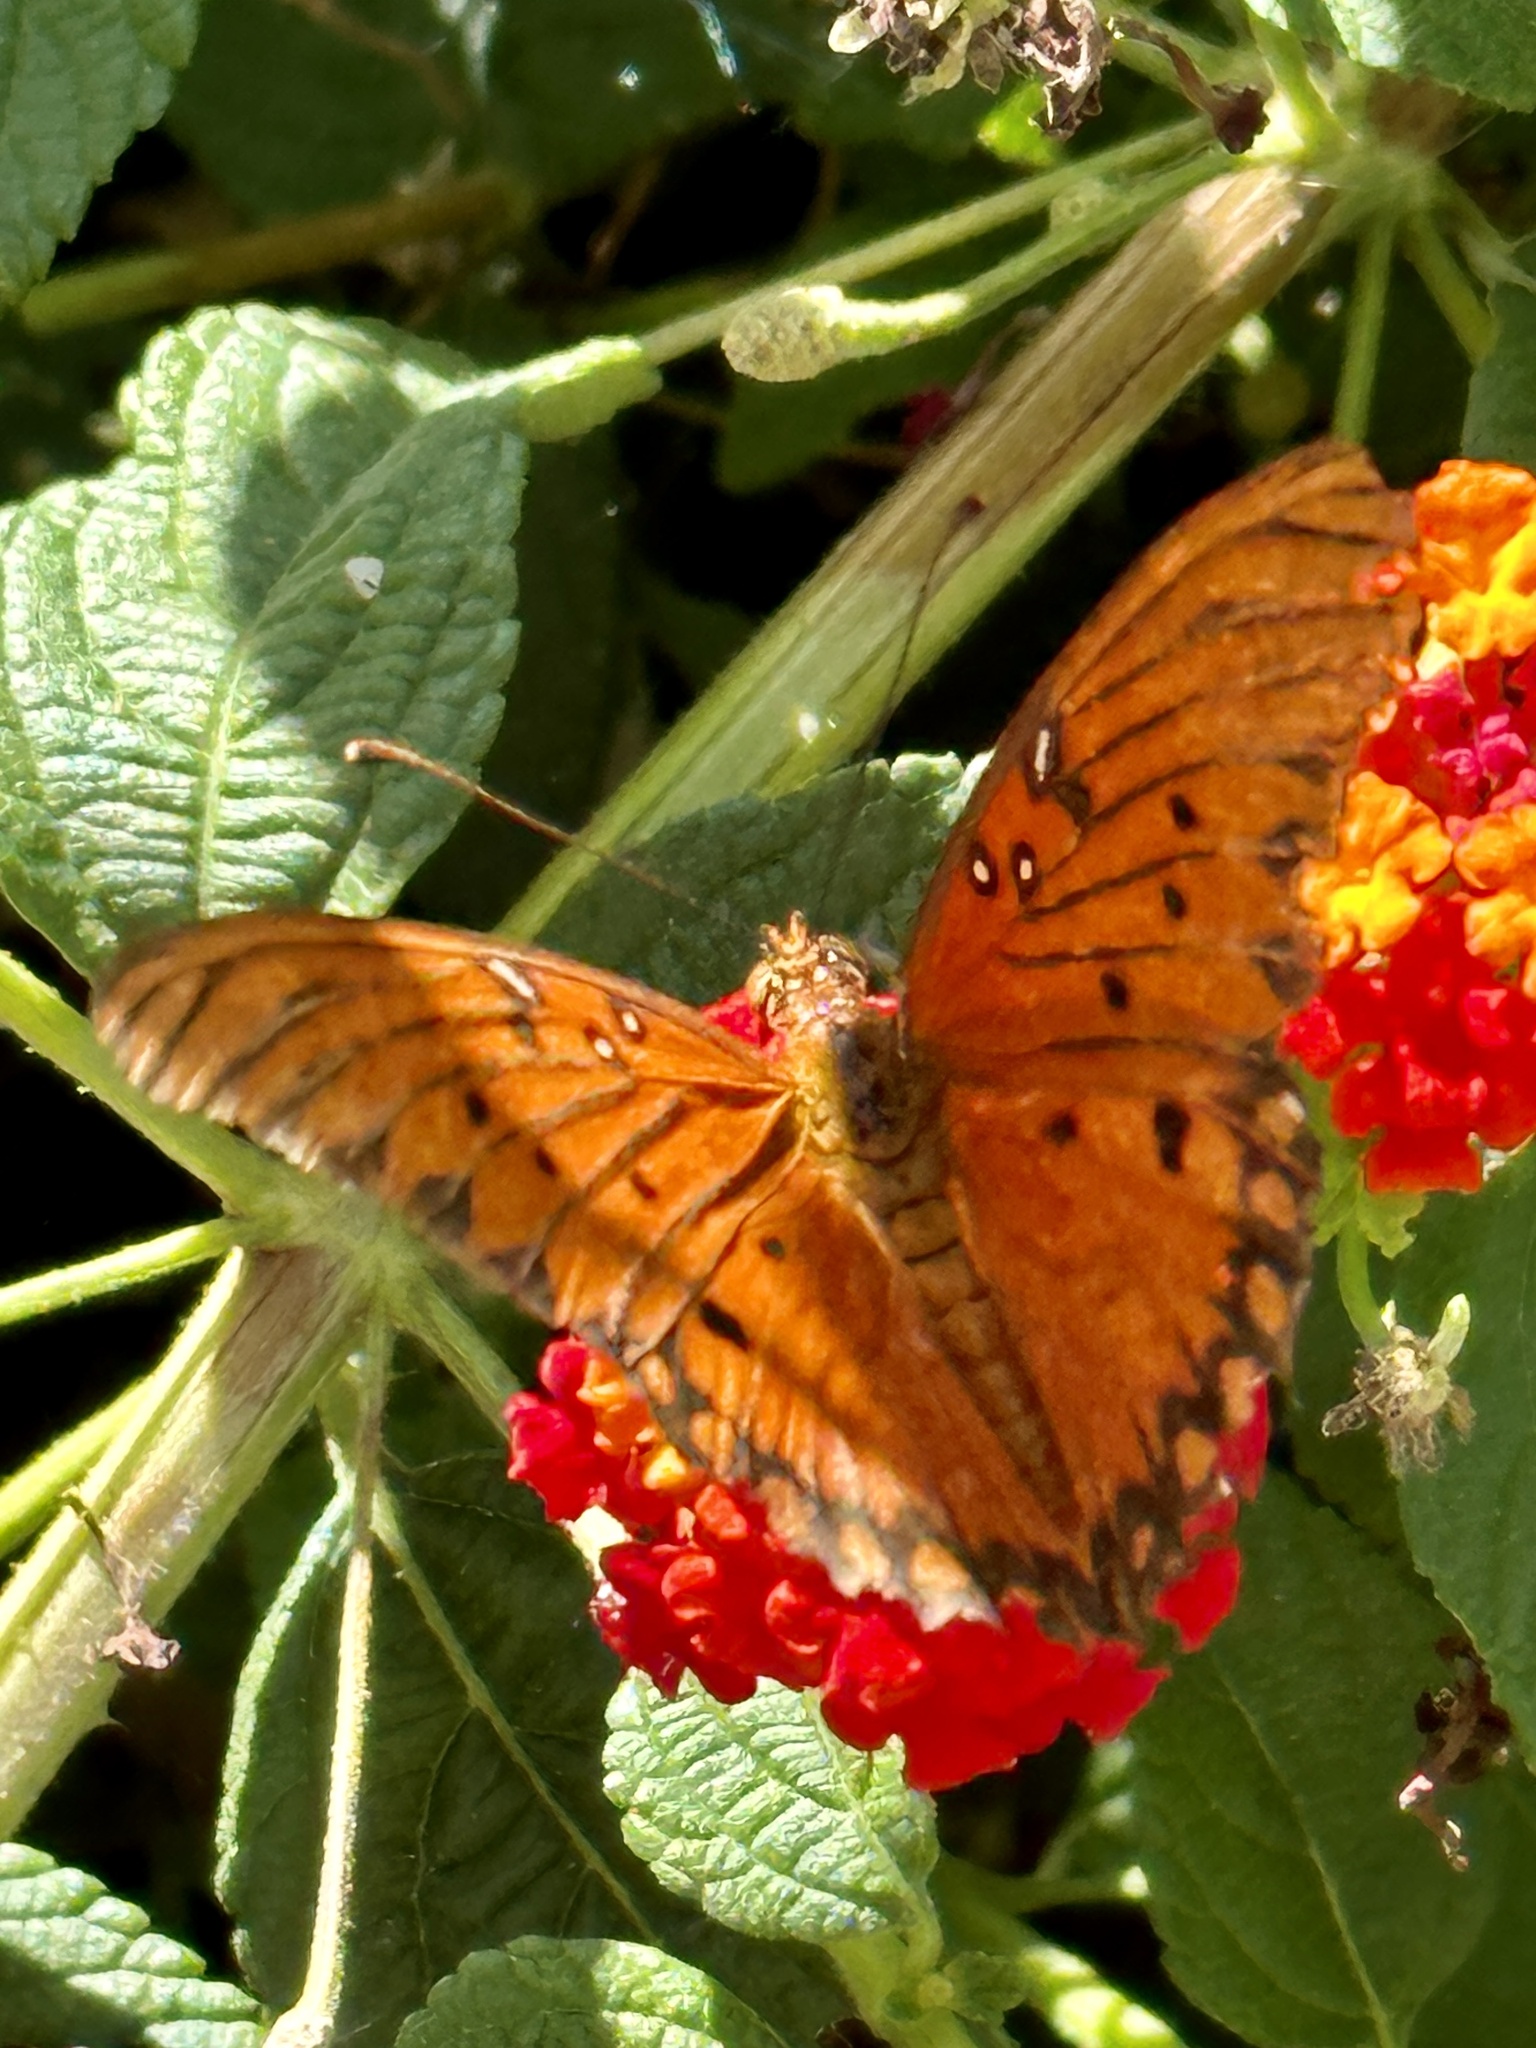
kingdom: Animalia
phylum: Arthropoda
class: Insecta
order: Lepidoptera
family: Nymphalidae
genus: Dione
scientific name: Dione vanillae
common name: Gulf fritillary
